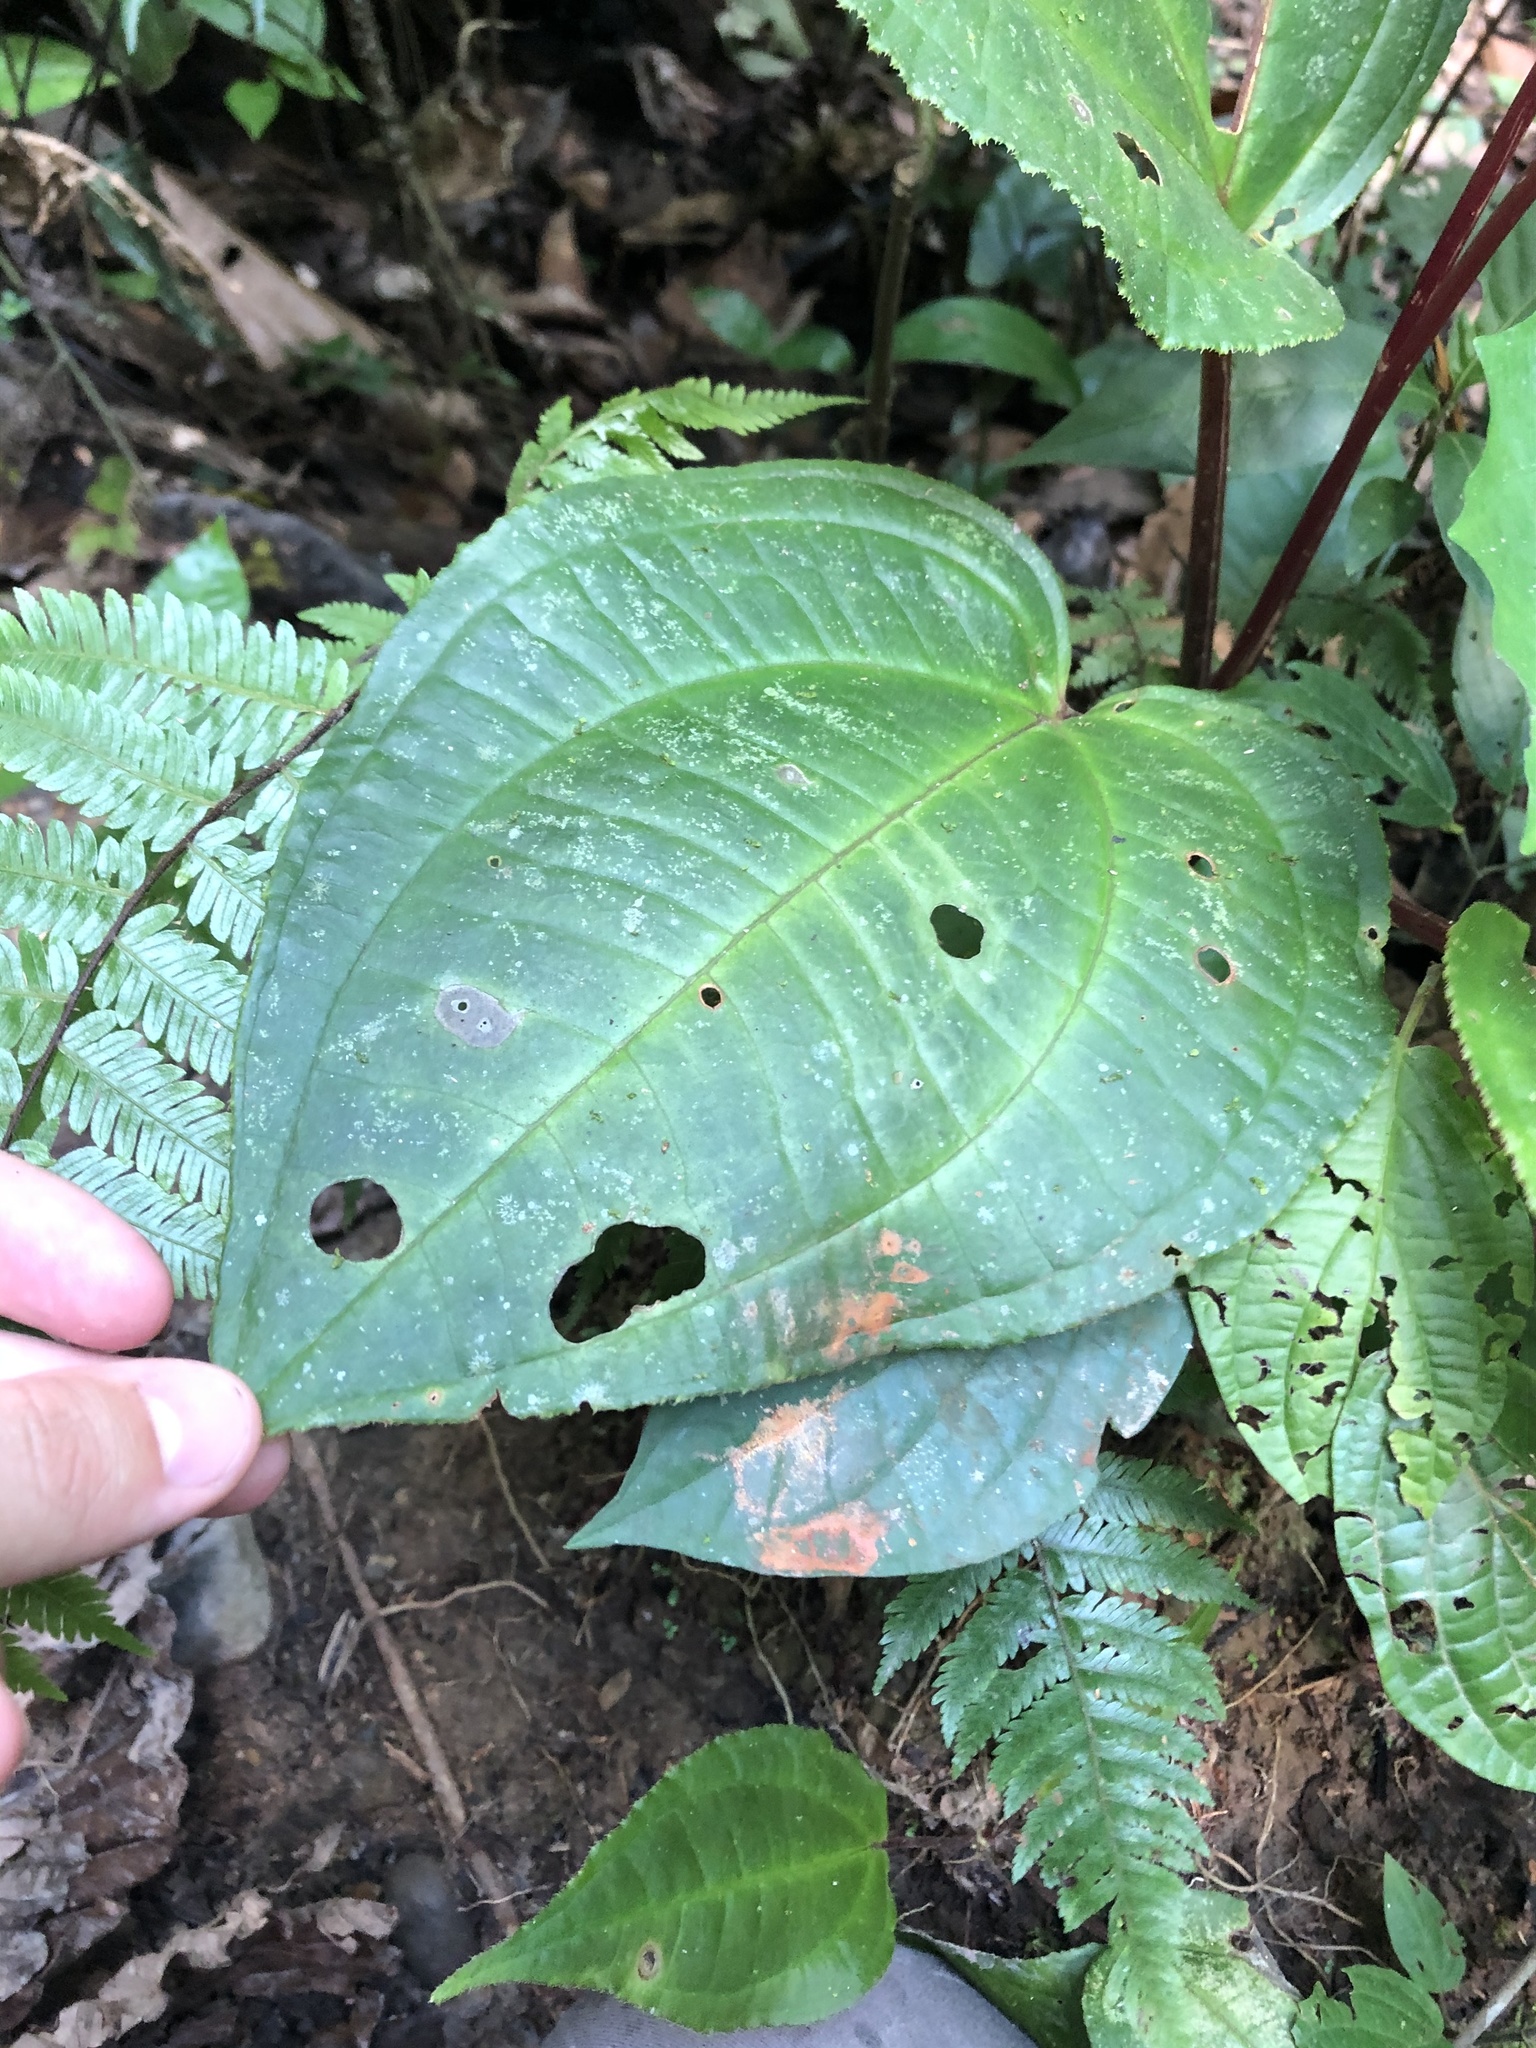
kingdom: Plantae
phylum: Tracheophyta
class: Magnoliopsida
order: Myrtales
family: Melastomataceae
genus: Monolena
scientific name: Monolena primuliflora
